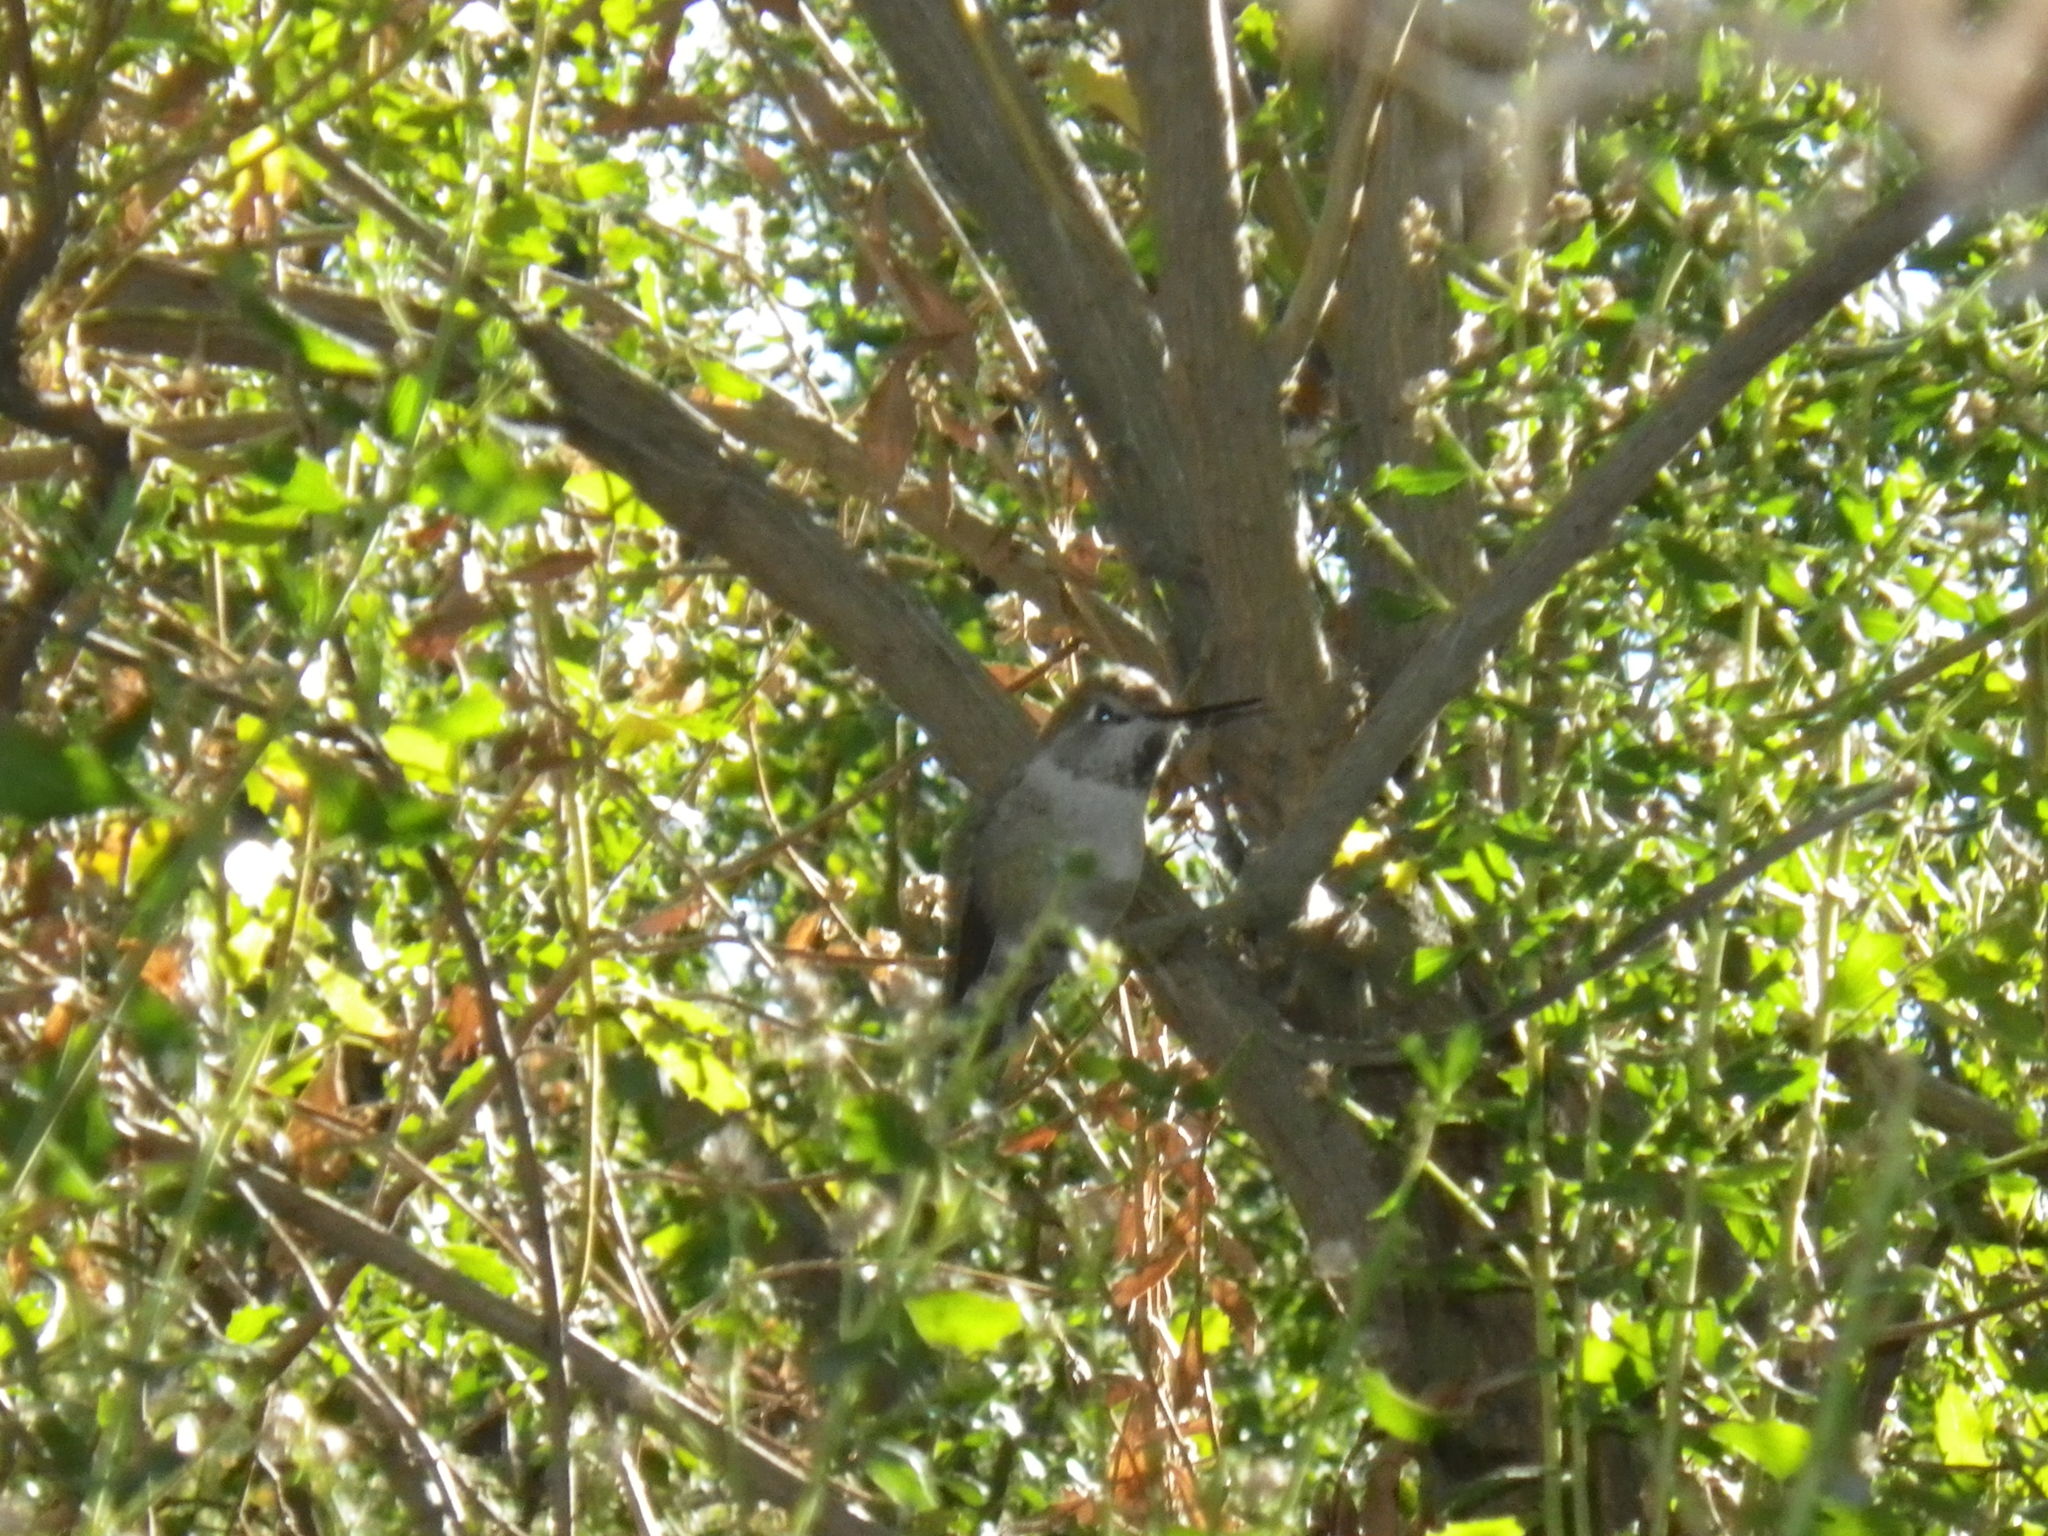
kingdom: Animalia
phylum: Chordata
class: Aves
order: Apodiformes
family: Trochilidae
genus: Calypte
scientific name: Calypte anna
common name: Anna's hummingbird
